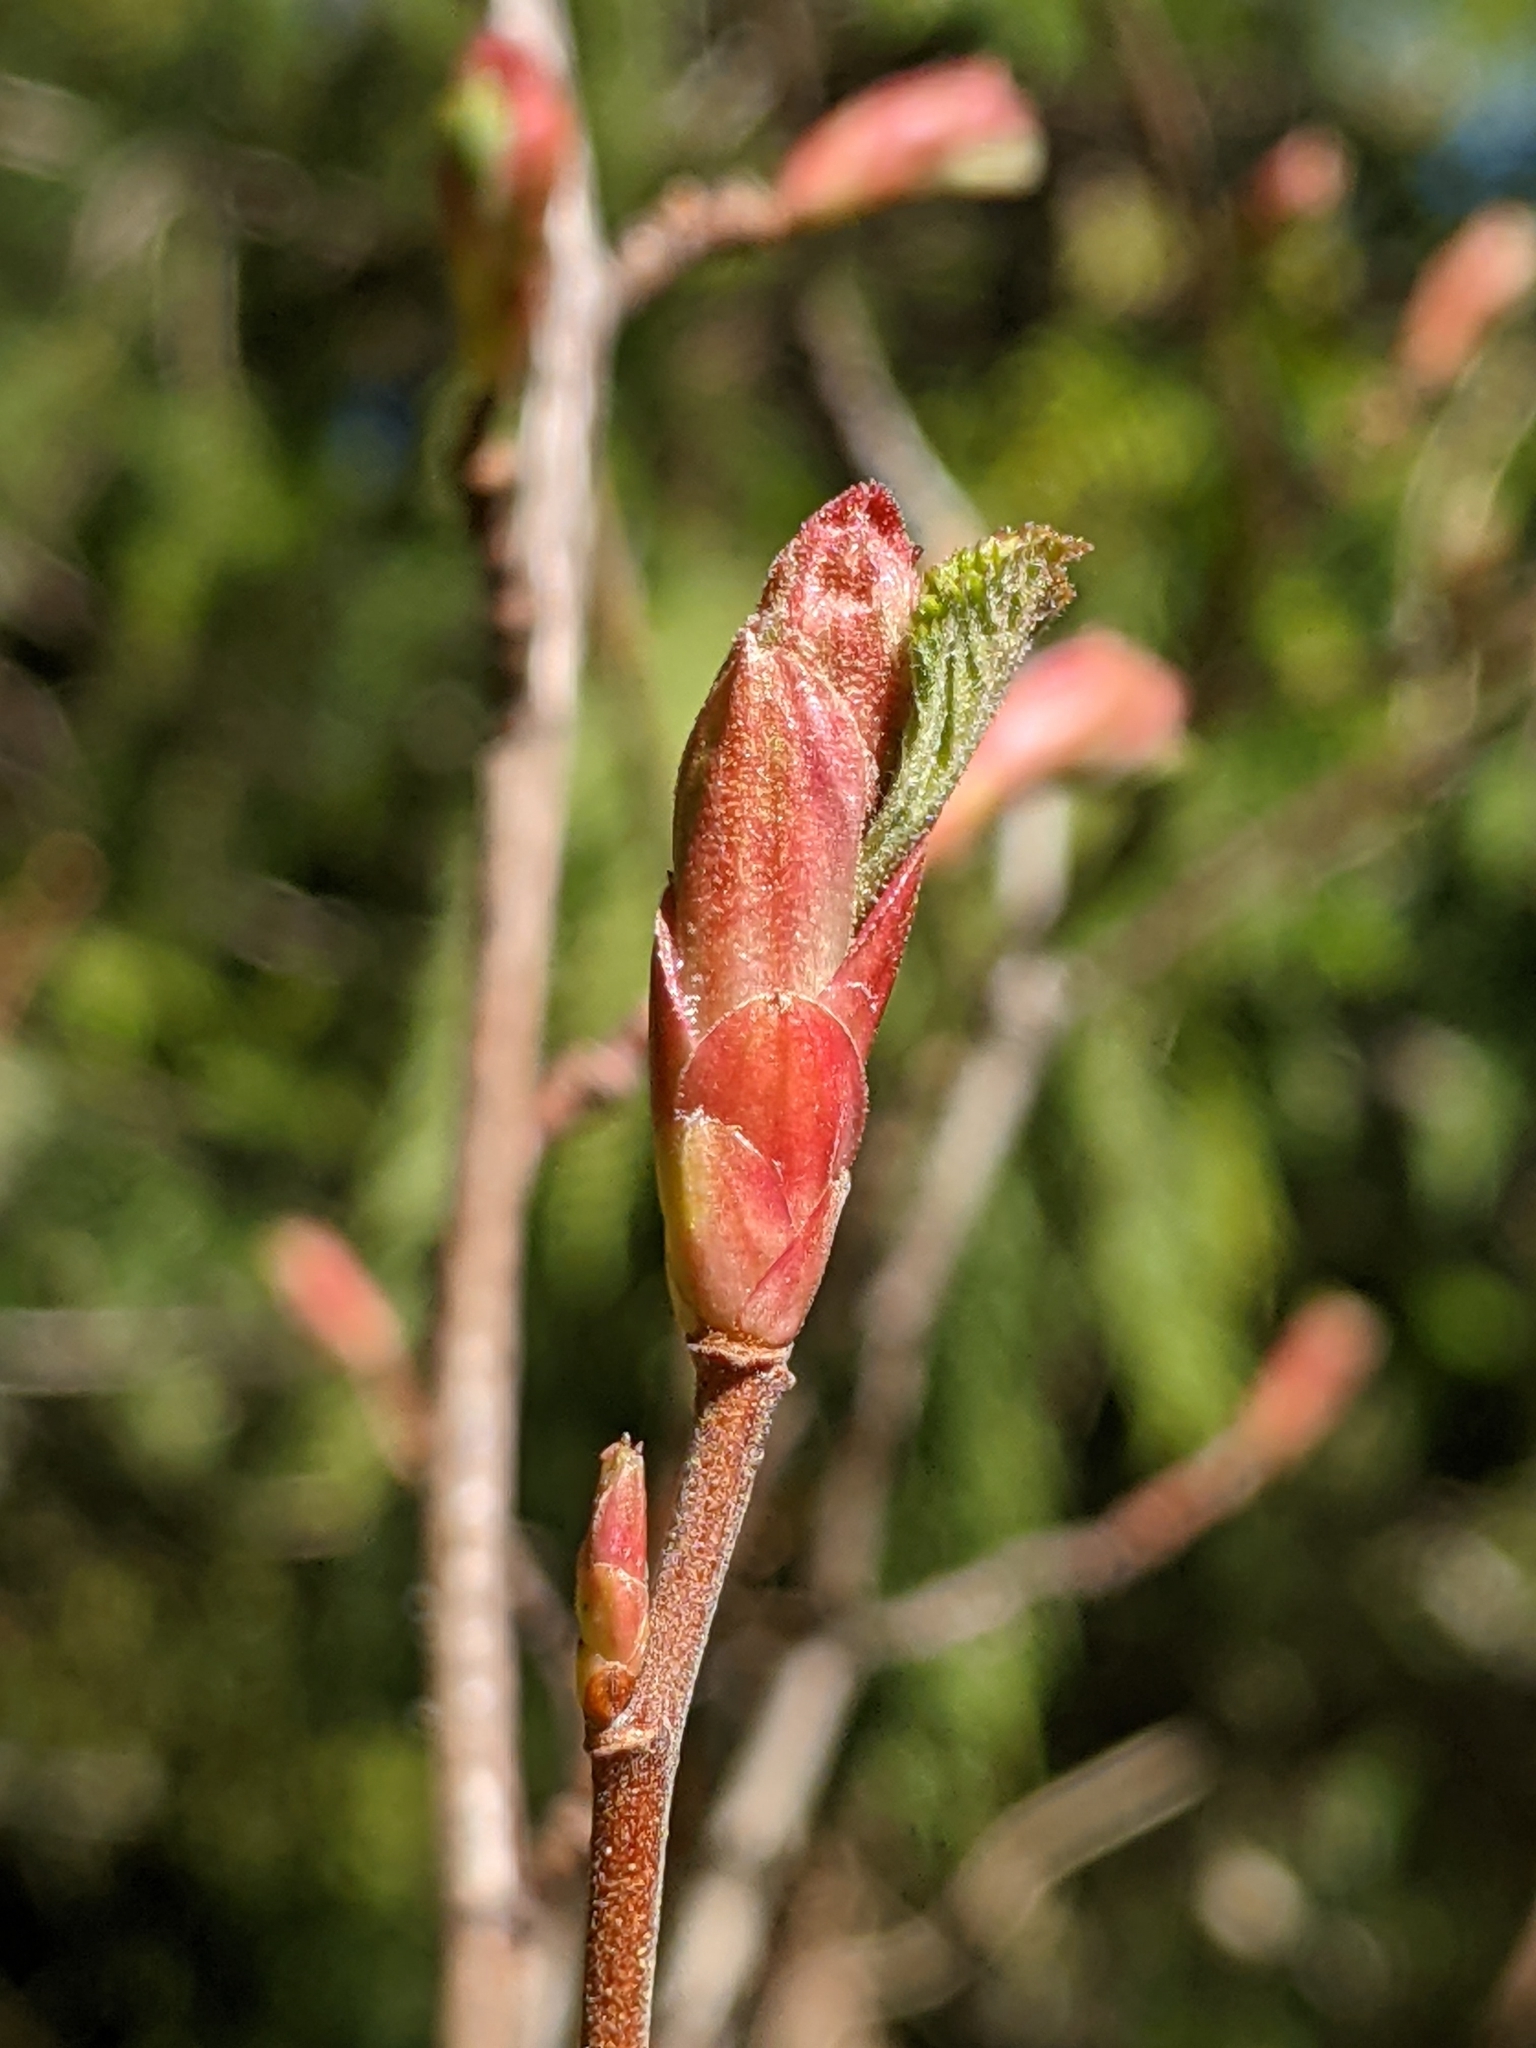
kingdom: Plantae
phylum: Tracheophyta
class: Magnoliopsida
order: Saxifragales
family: Grossulariaceae
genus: Ribes
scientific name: Ribes sanguineum
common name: Flowering currant
